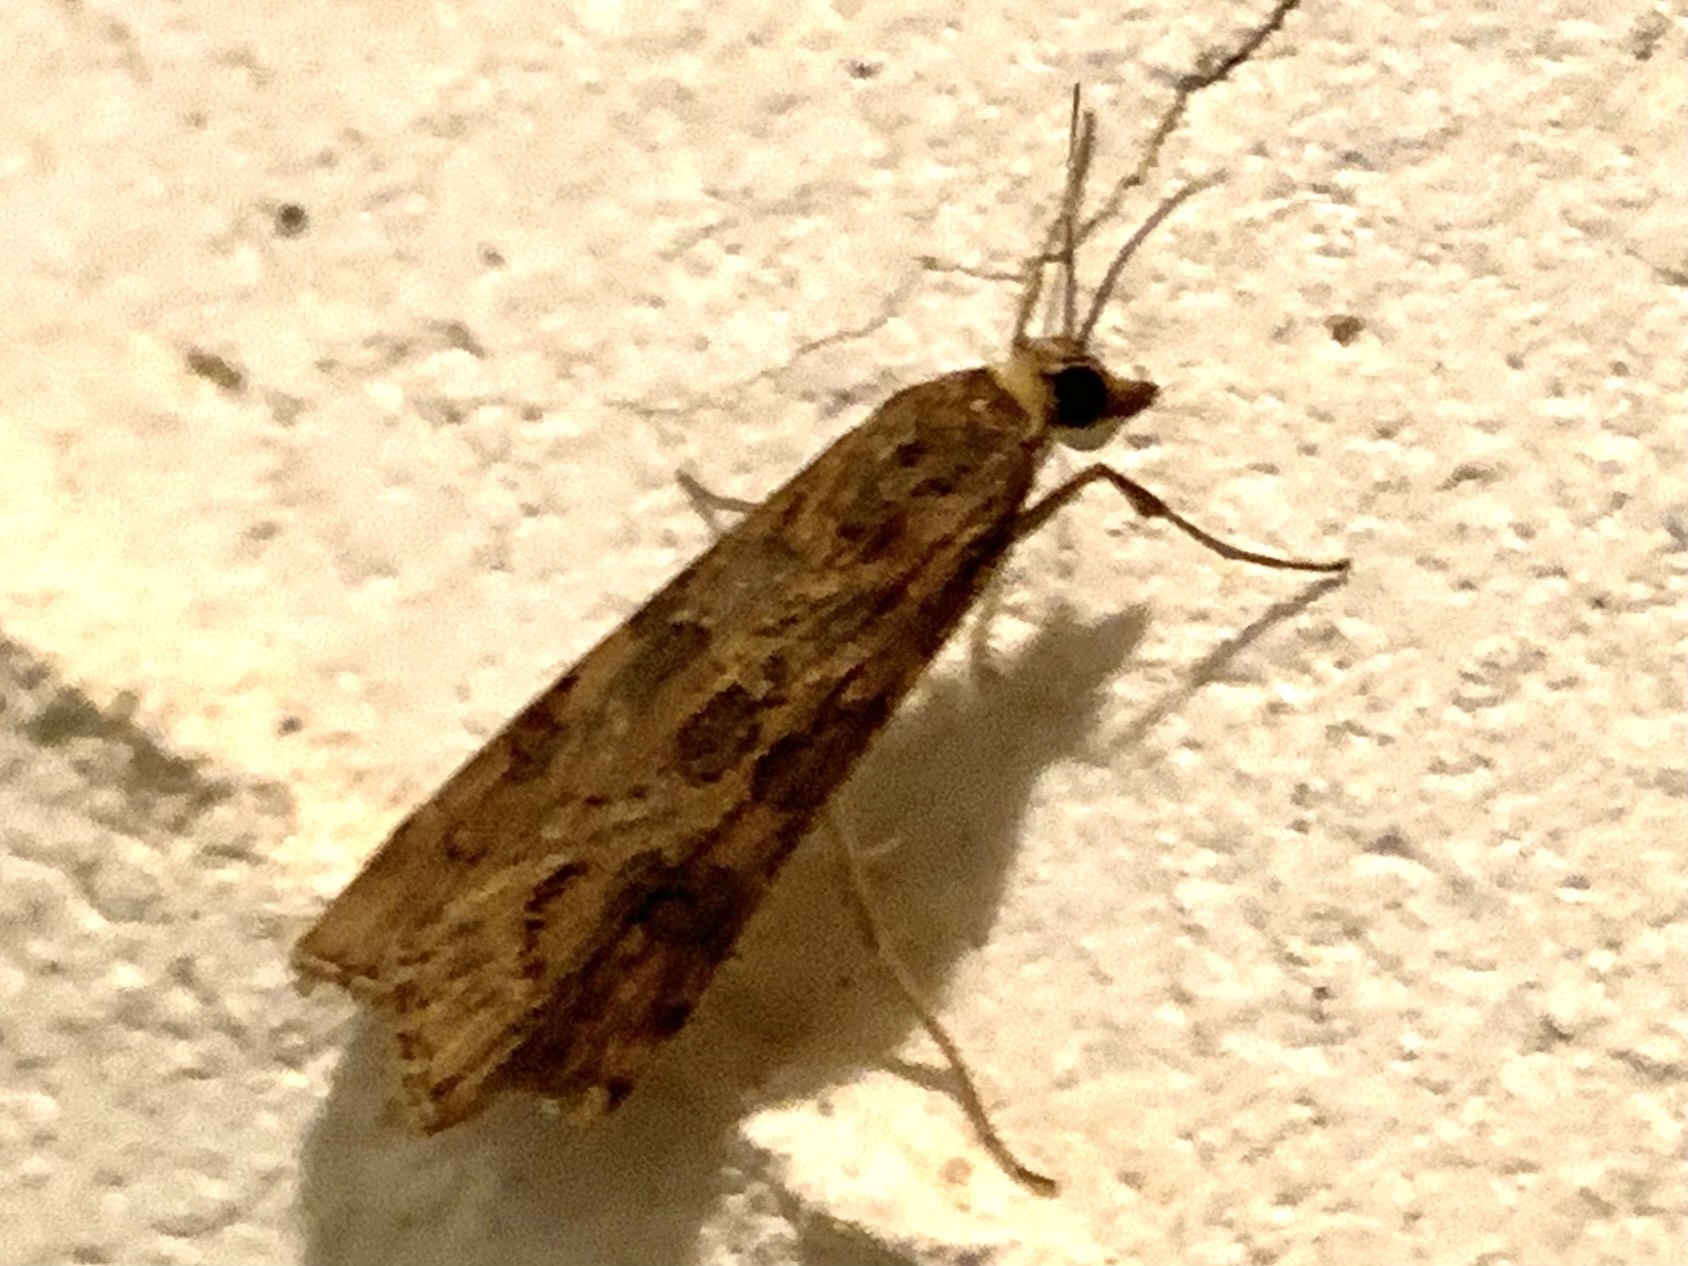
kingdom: Animalia
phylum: Arthropoda
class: Insecta
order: Lepidoptera
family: Crambidae
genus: Nomophila
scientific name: Nomophila noctuella
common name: Rush veneer
